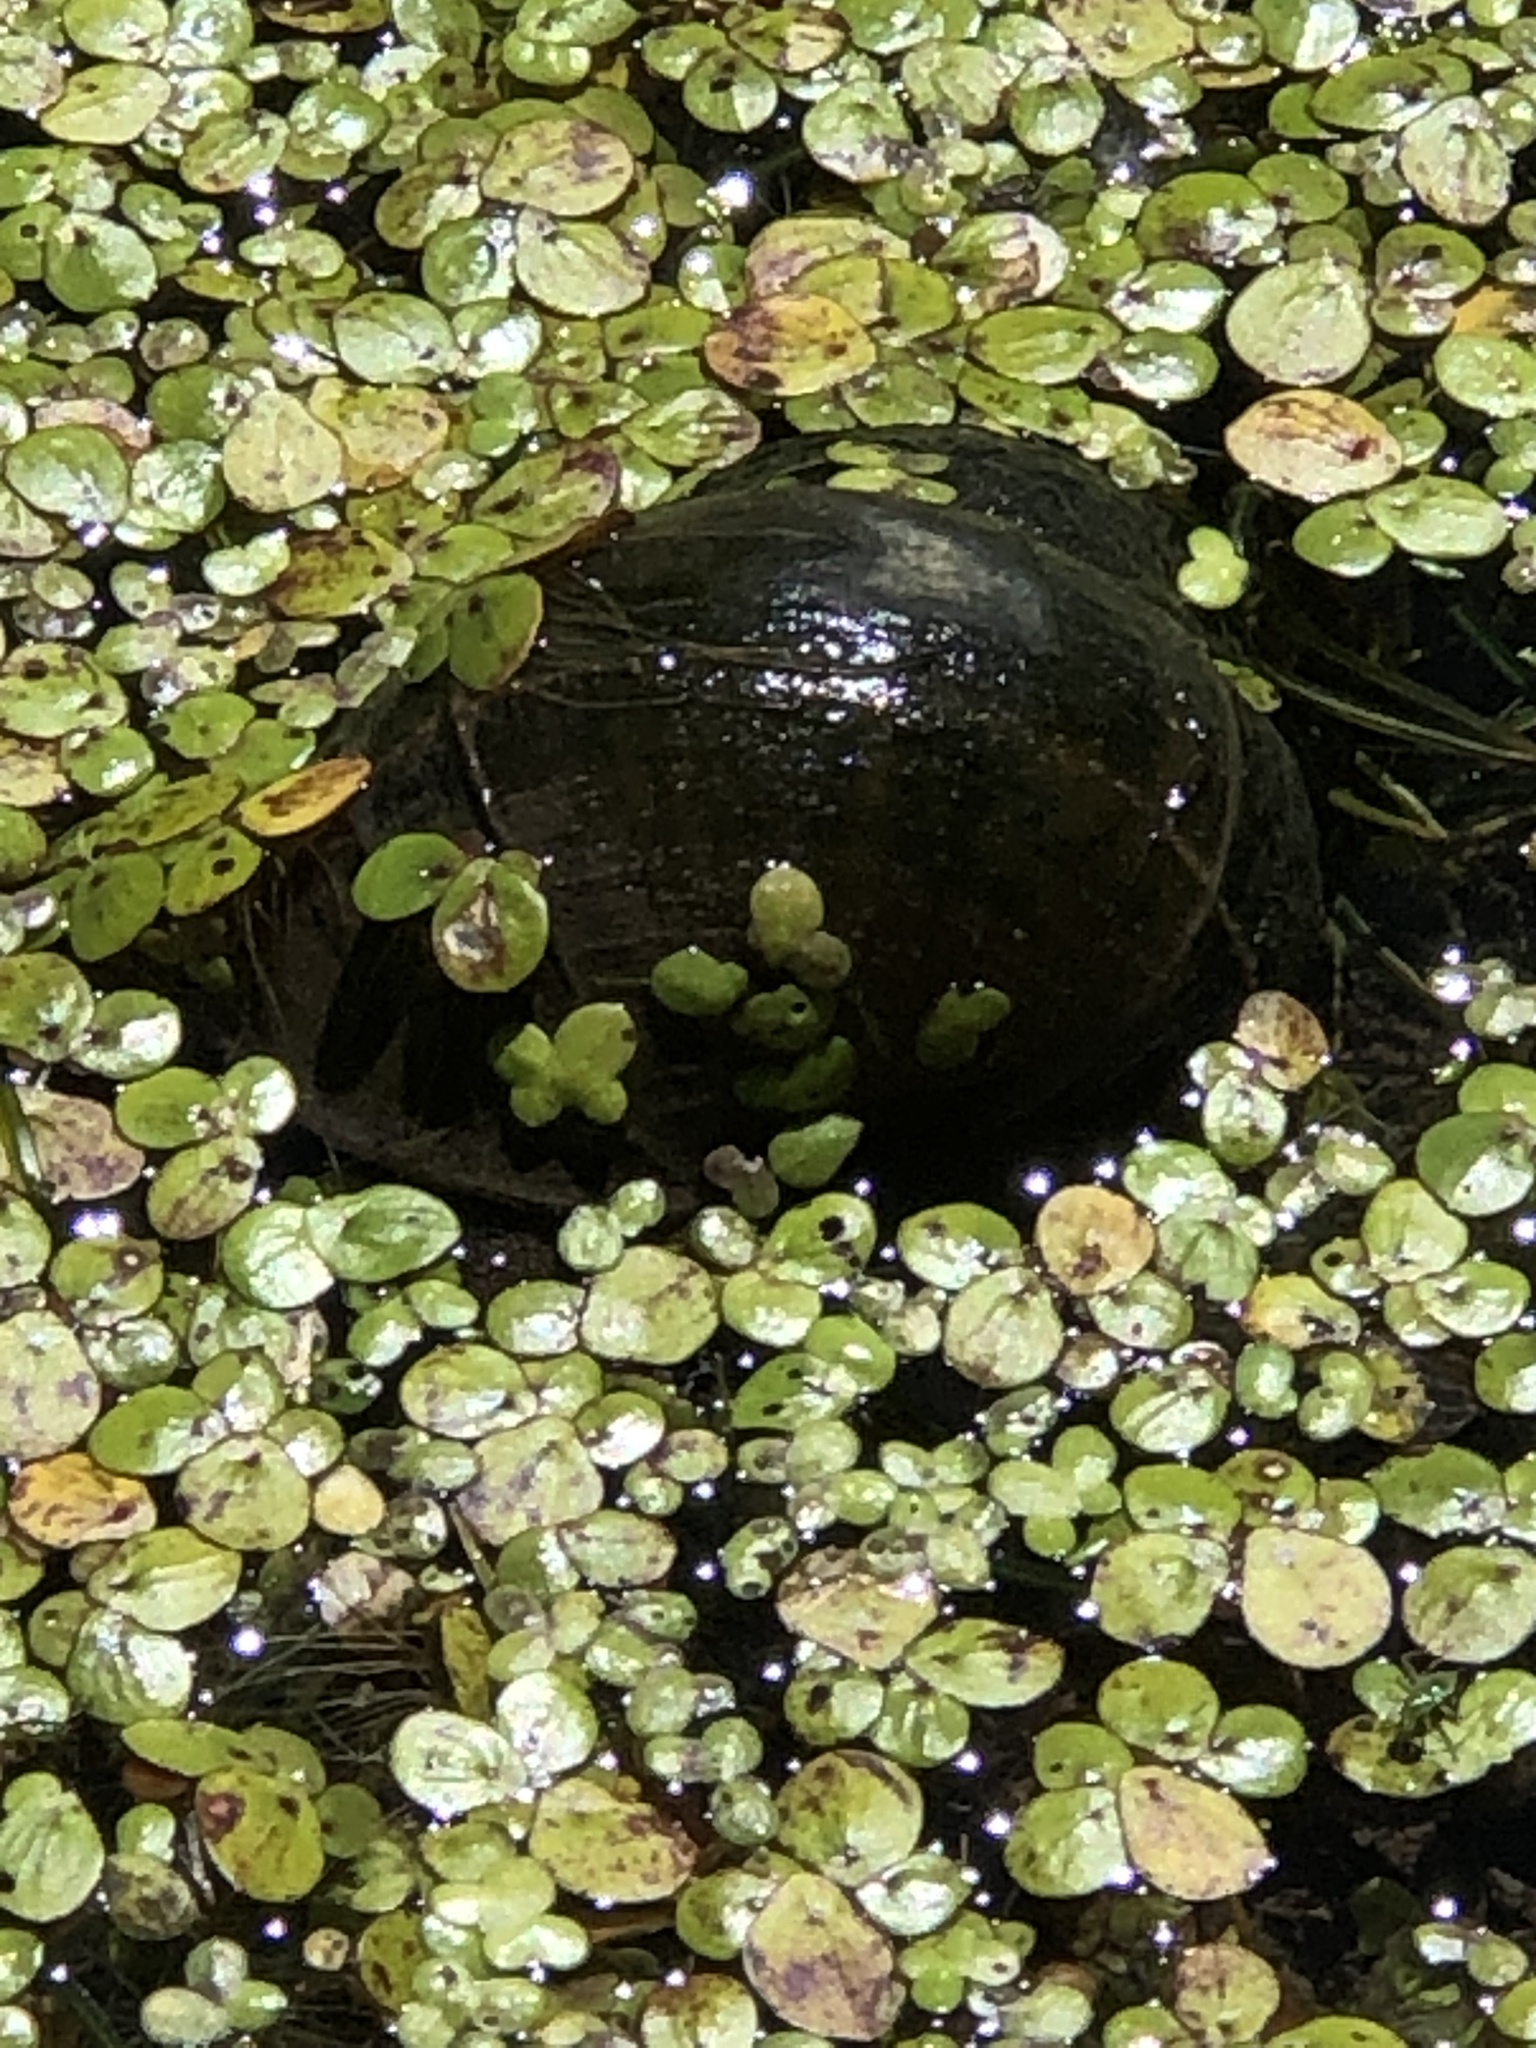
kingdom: Animalia
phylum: Mollusca
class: Gastropoda
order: Architaenioglossa
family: Viviparidae
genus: Cipangopaludina
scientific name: Cipangopaludina chinensis
